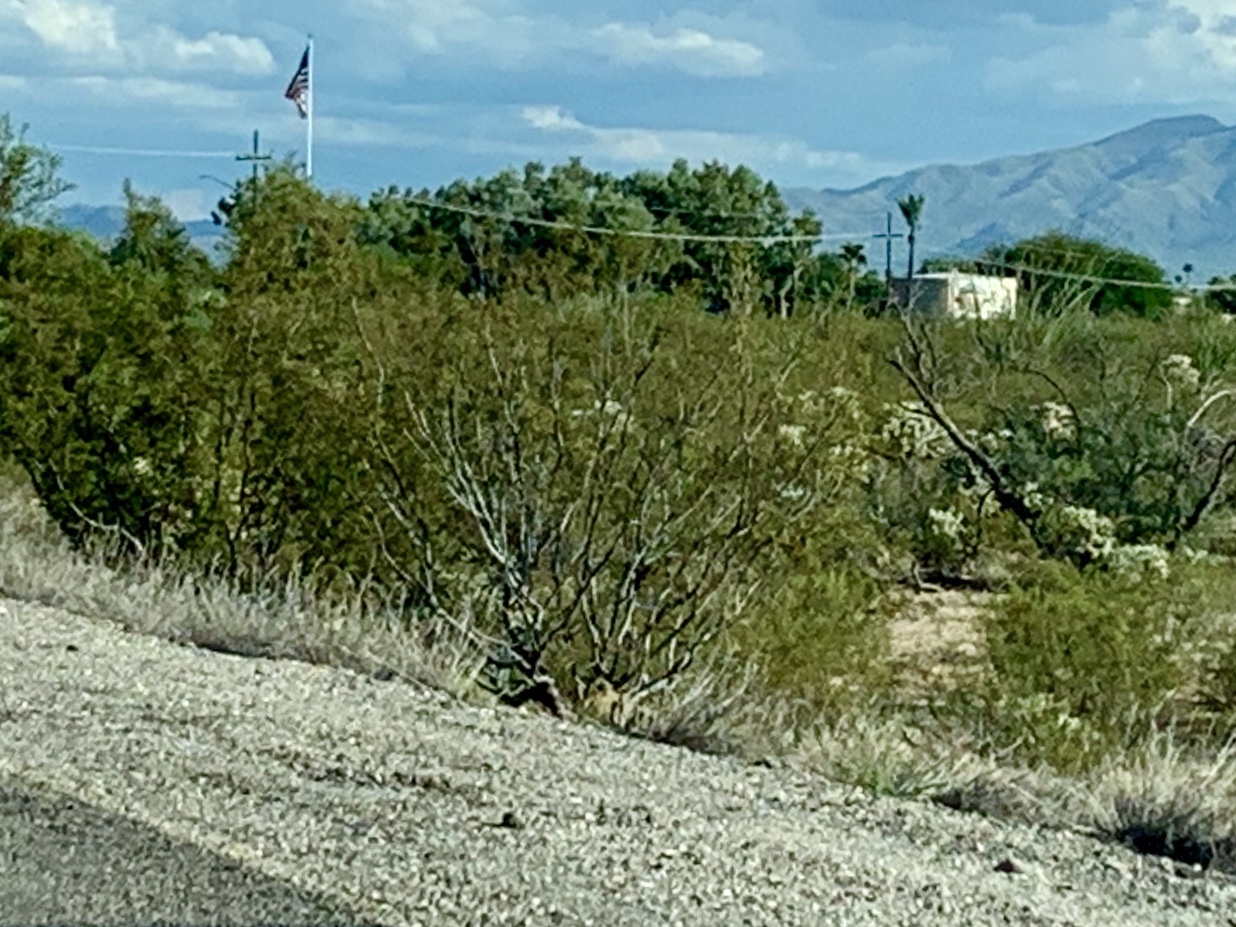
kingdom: Plantae
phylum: Tracheophyta
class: Magnoliopsida
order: Zygophyllales
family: Zygophyllaceae
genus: Larrea
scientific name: Larrea tridentata
